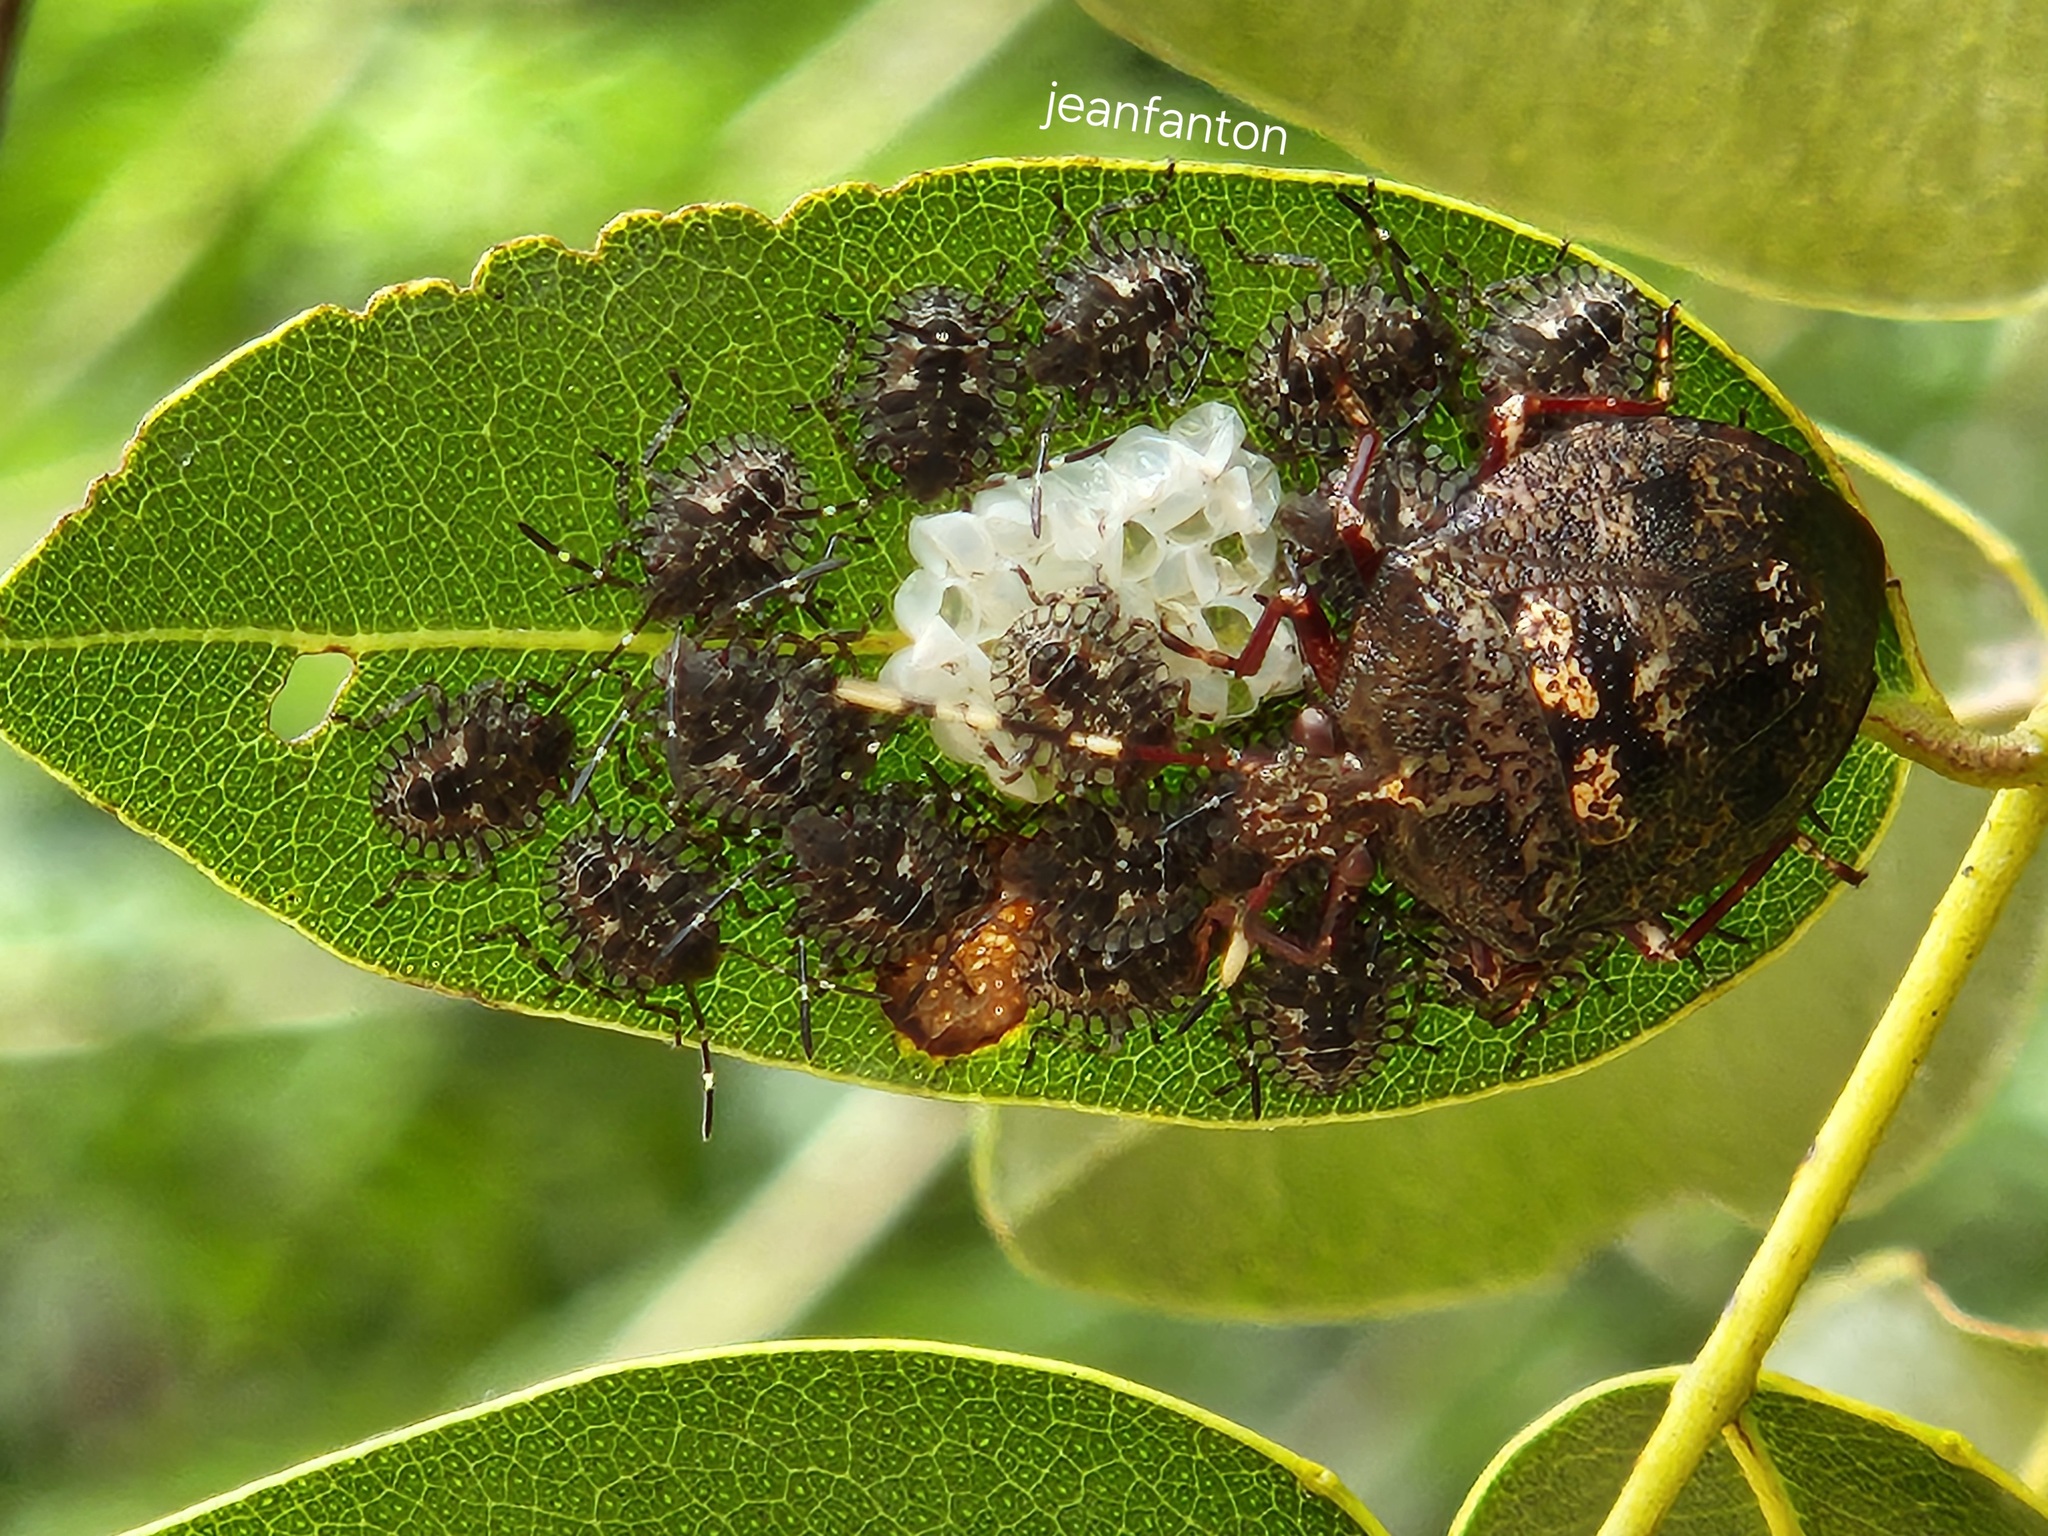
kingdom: Animalia
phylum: Arthropoda
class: Insecta
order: Hemiptera
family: Pentatomidae
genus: Antiteuchus
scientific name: Antiteuchus mixtus
